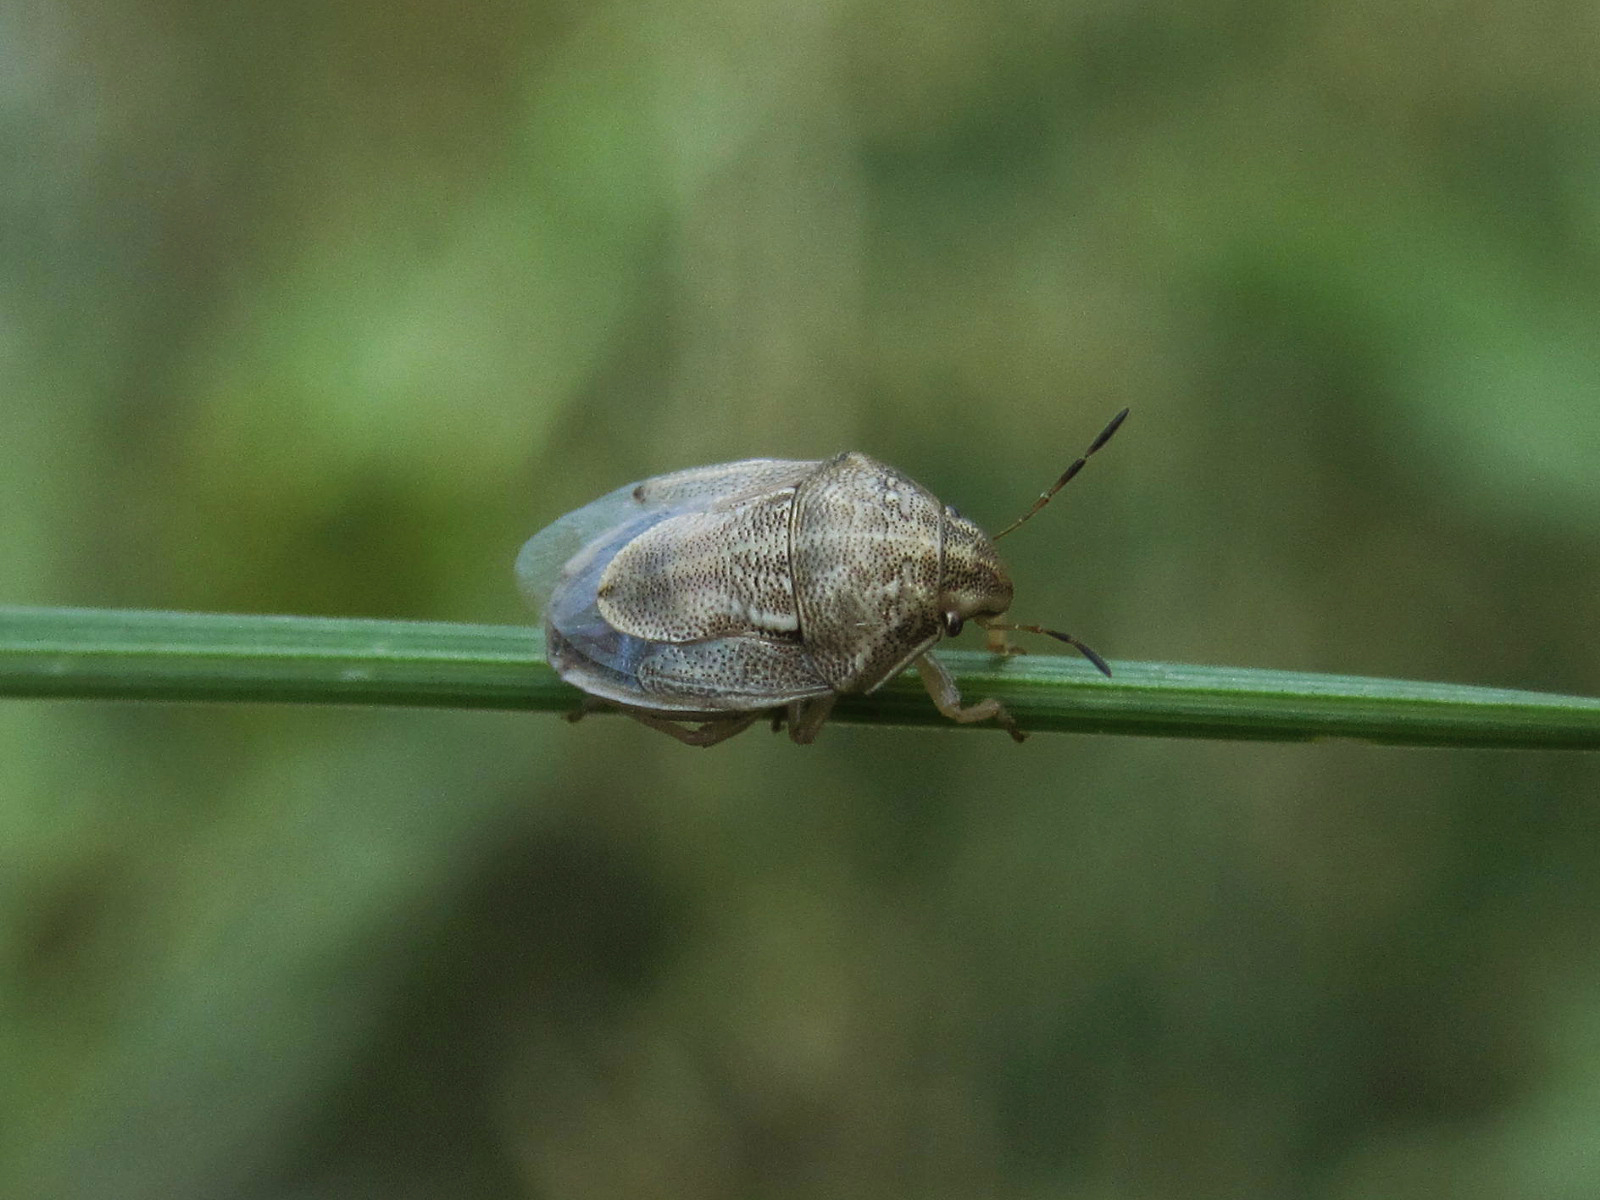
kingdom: Animalia
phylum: Arthropoda
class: Insecta
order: Hemiptera
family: Pentatomidae
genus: Neottiglossa
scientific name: Neottiglossa leporina
